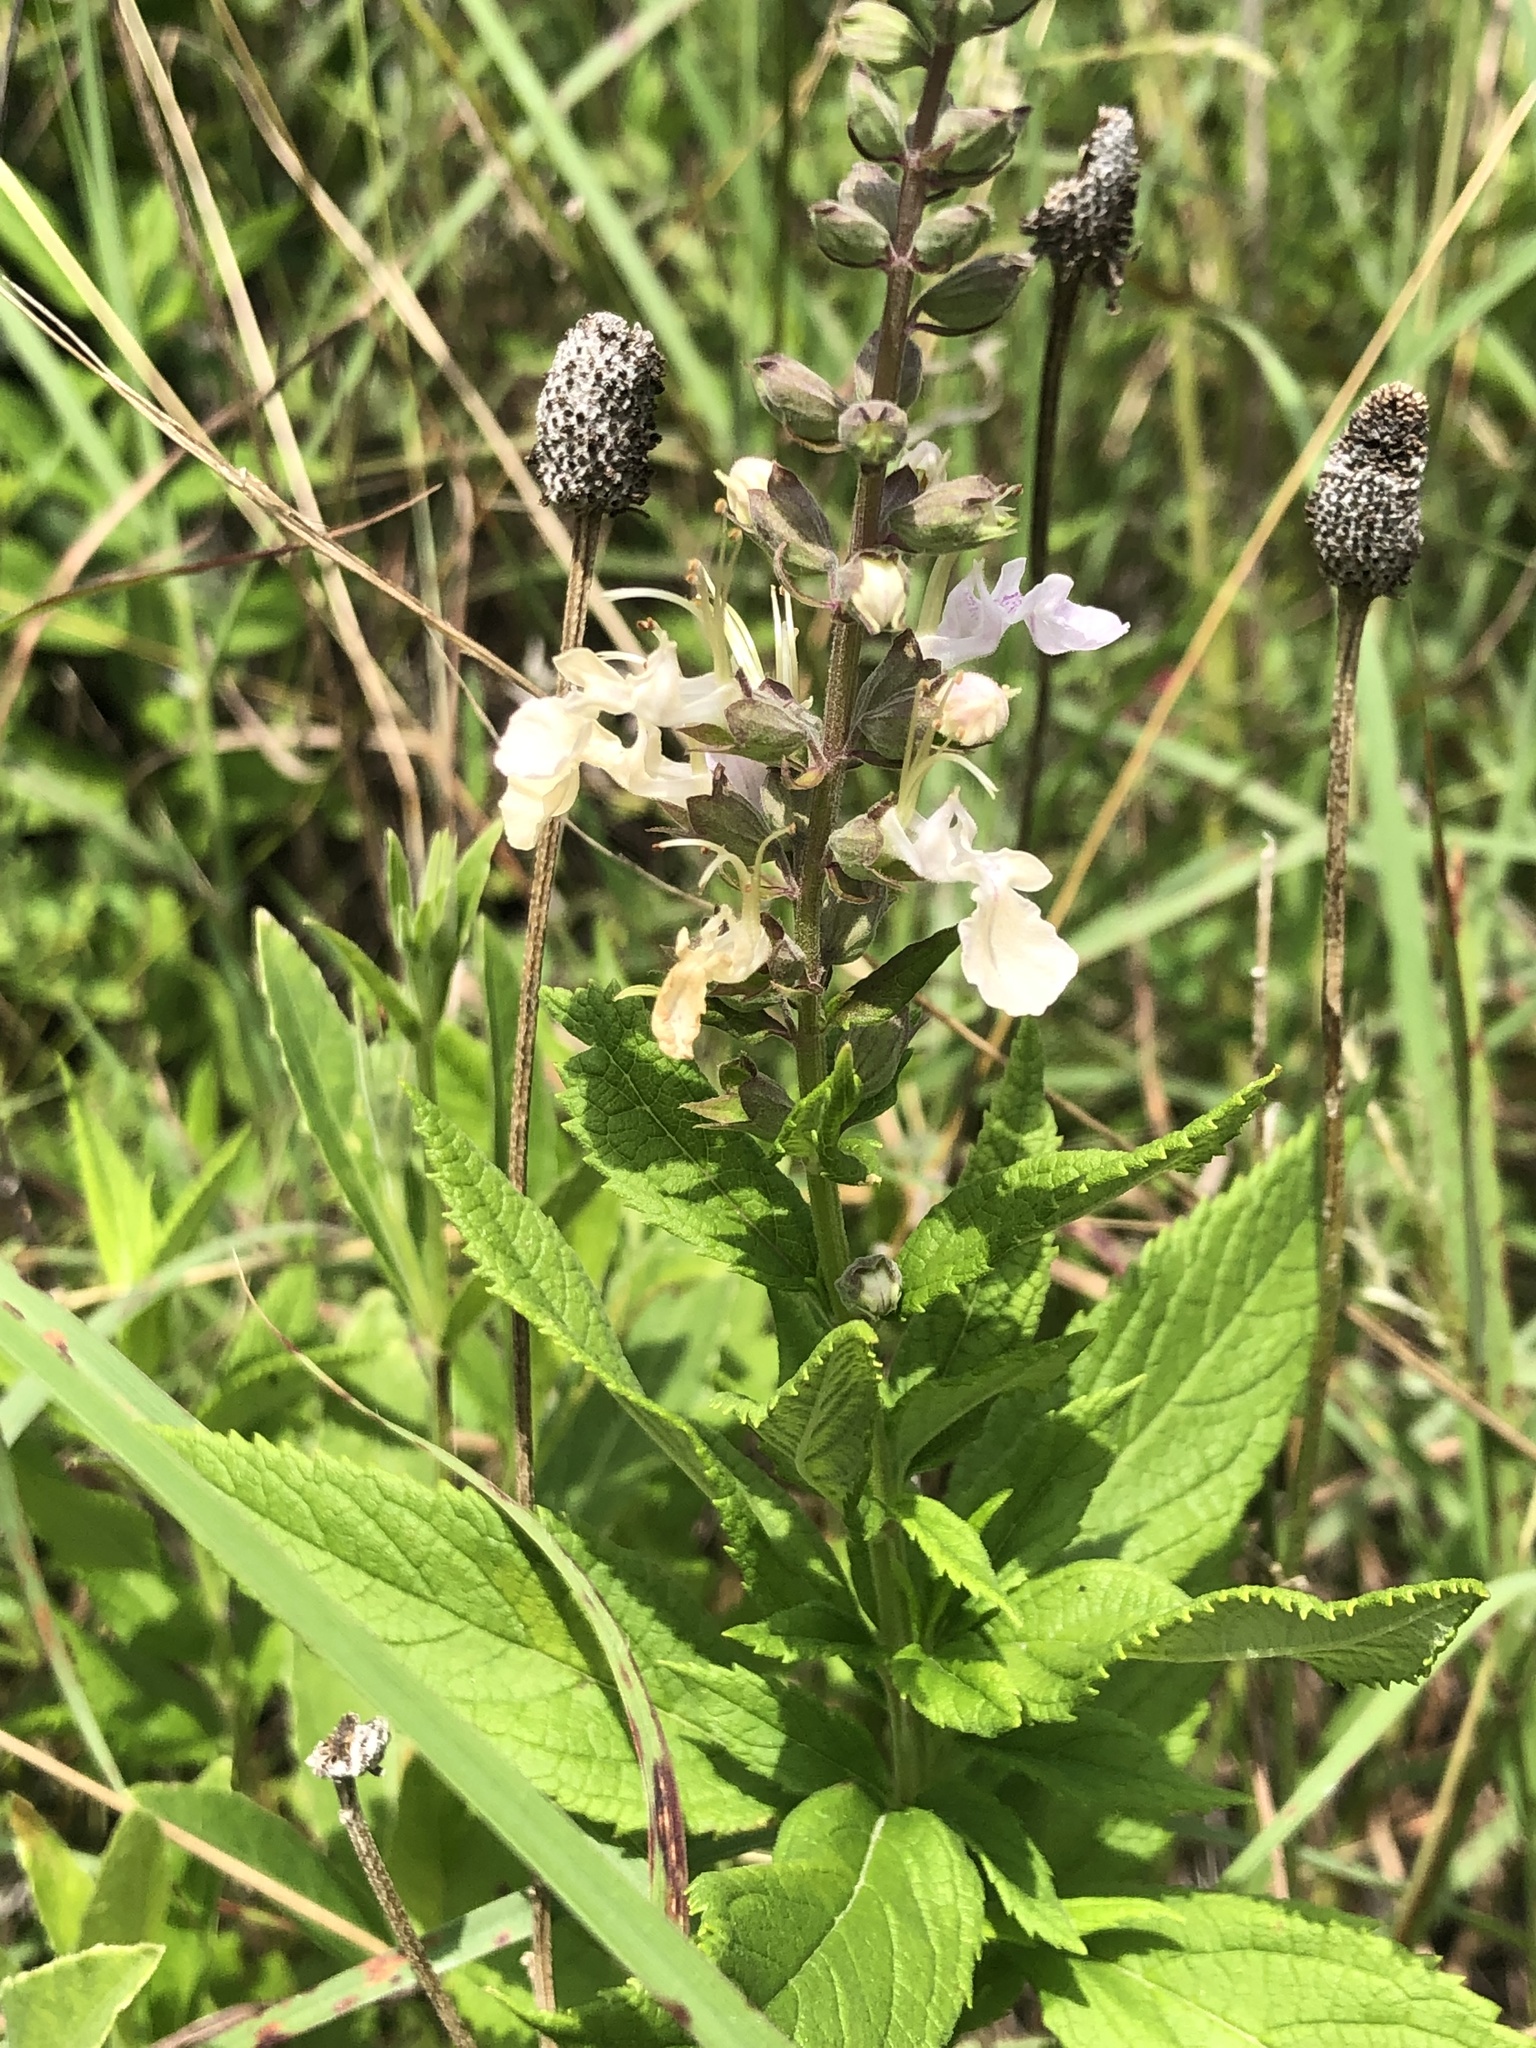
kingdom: Plantae
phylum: Tracheophyta
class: Magnoliopsida
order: Lamiales
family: Lamiaceae
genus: Teucrium
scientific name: Teucrium canadense
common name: American germander
